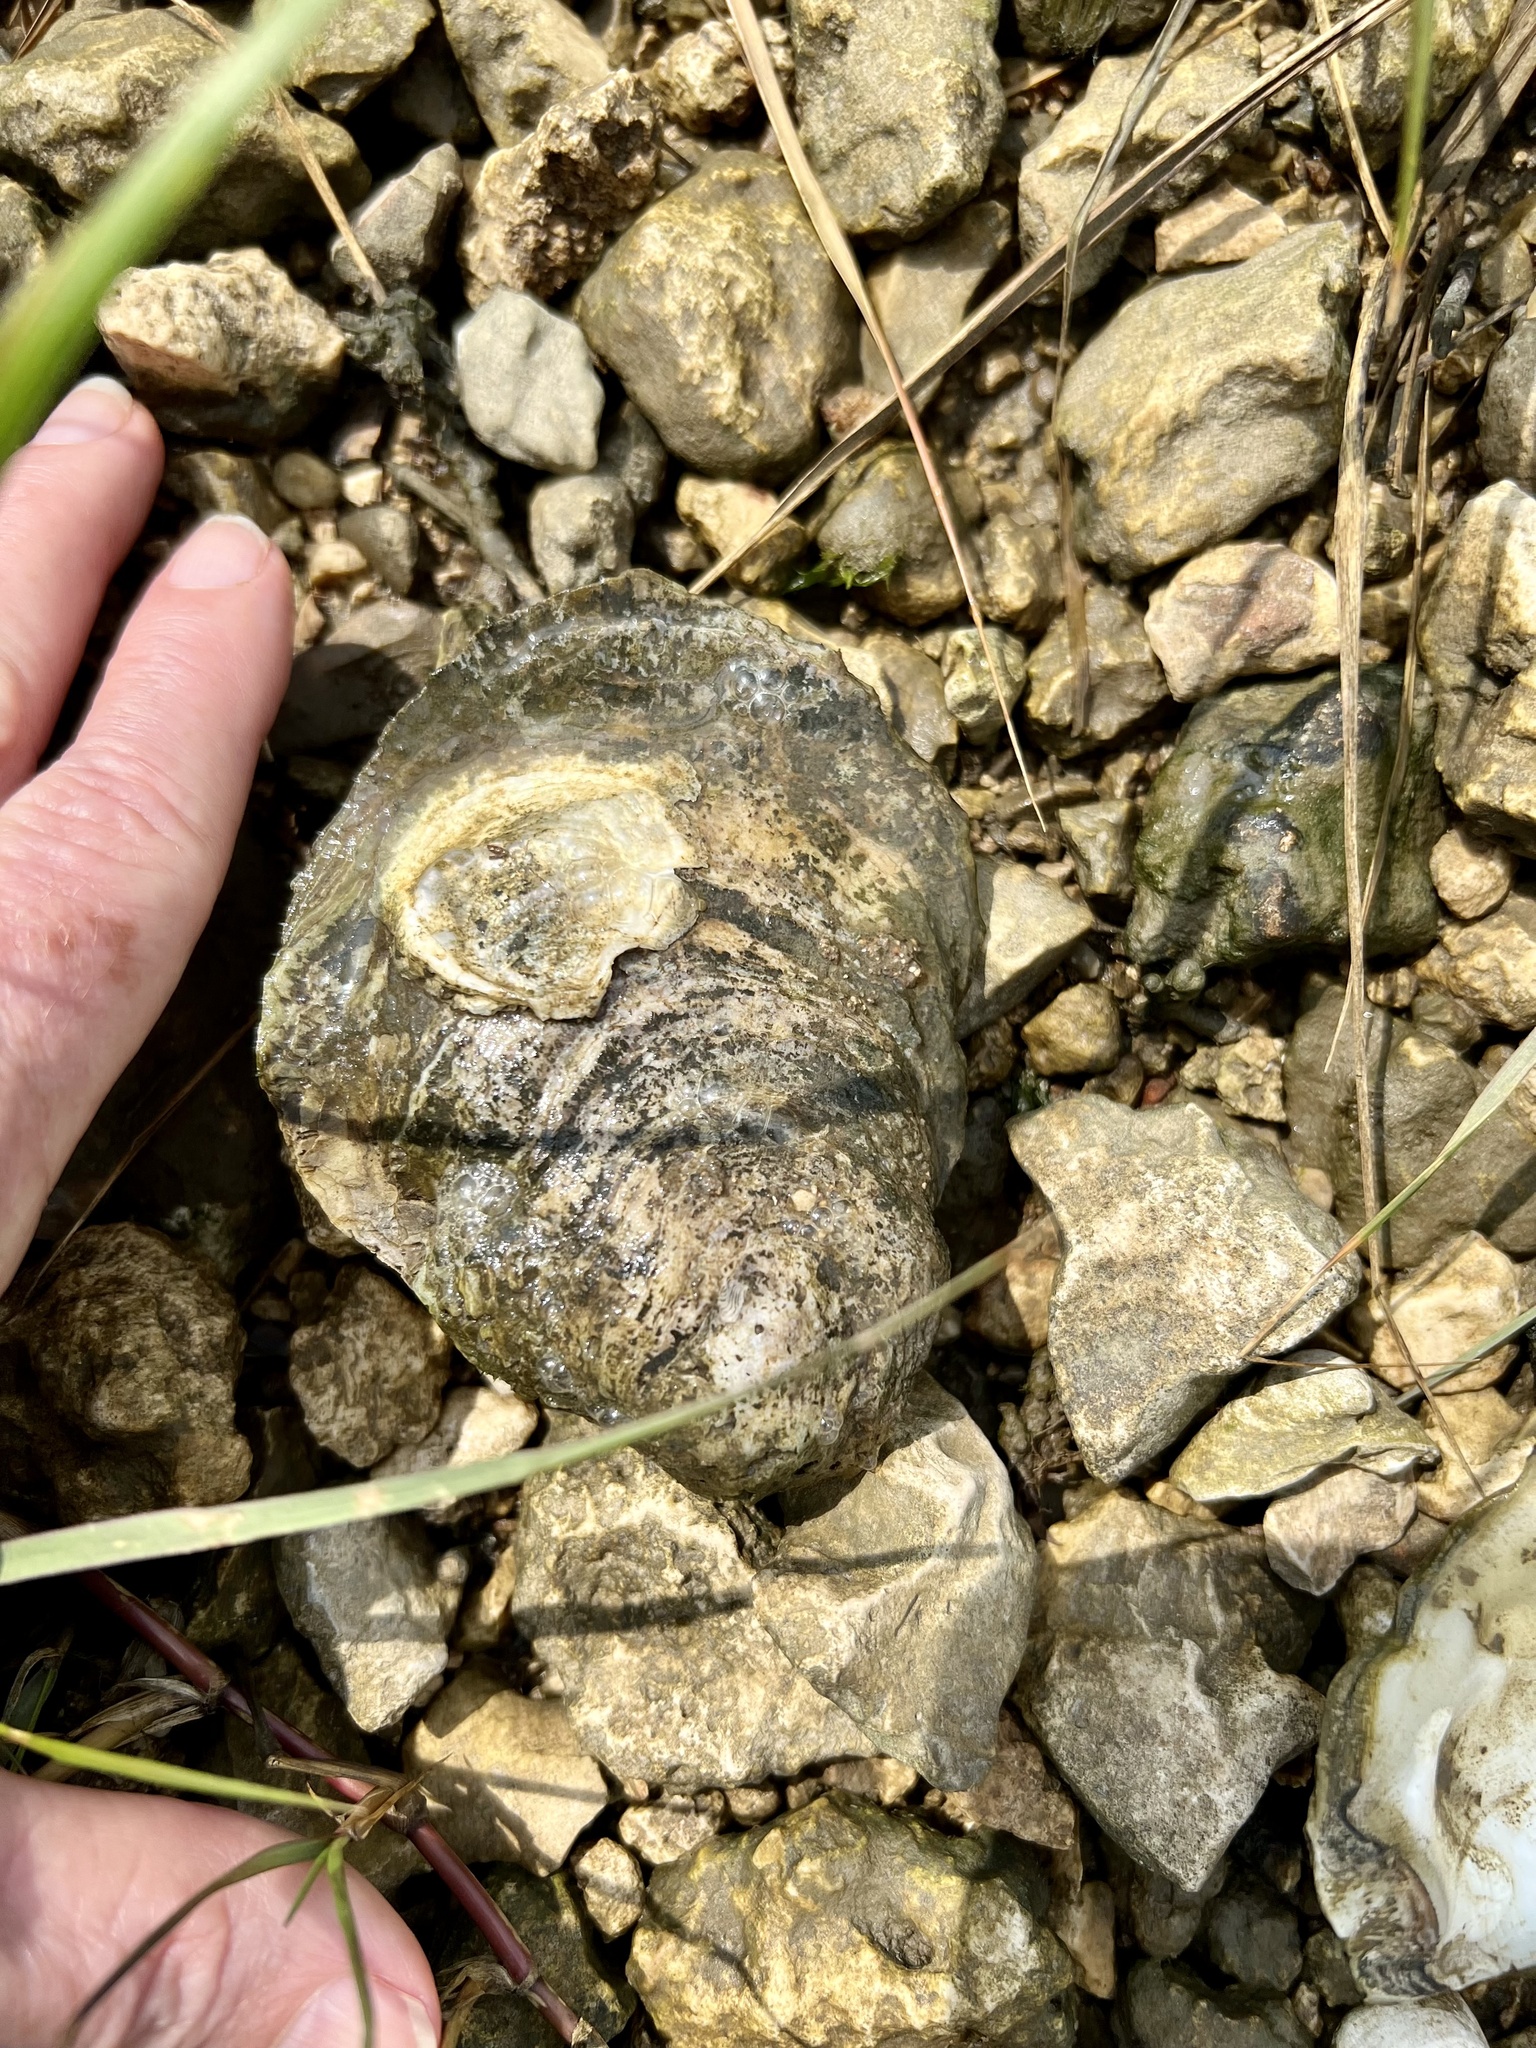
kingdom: Animalia
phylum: Mollusca
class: Bivalvia
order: Ostreida
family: Ostreidae
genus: Crassostrea
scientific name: Crassostrea virginica
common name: American oyster
